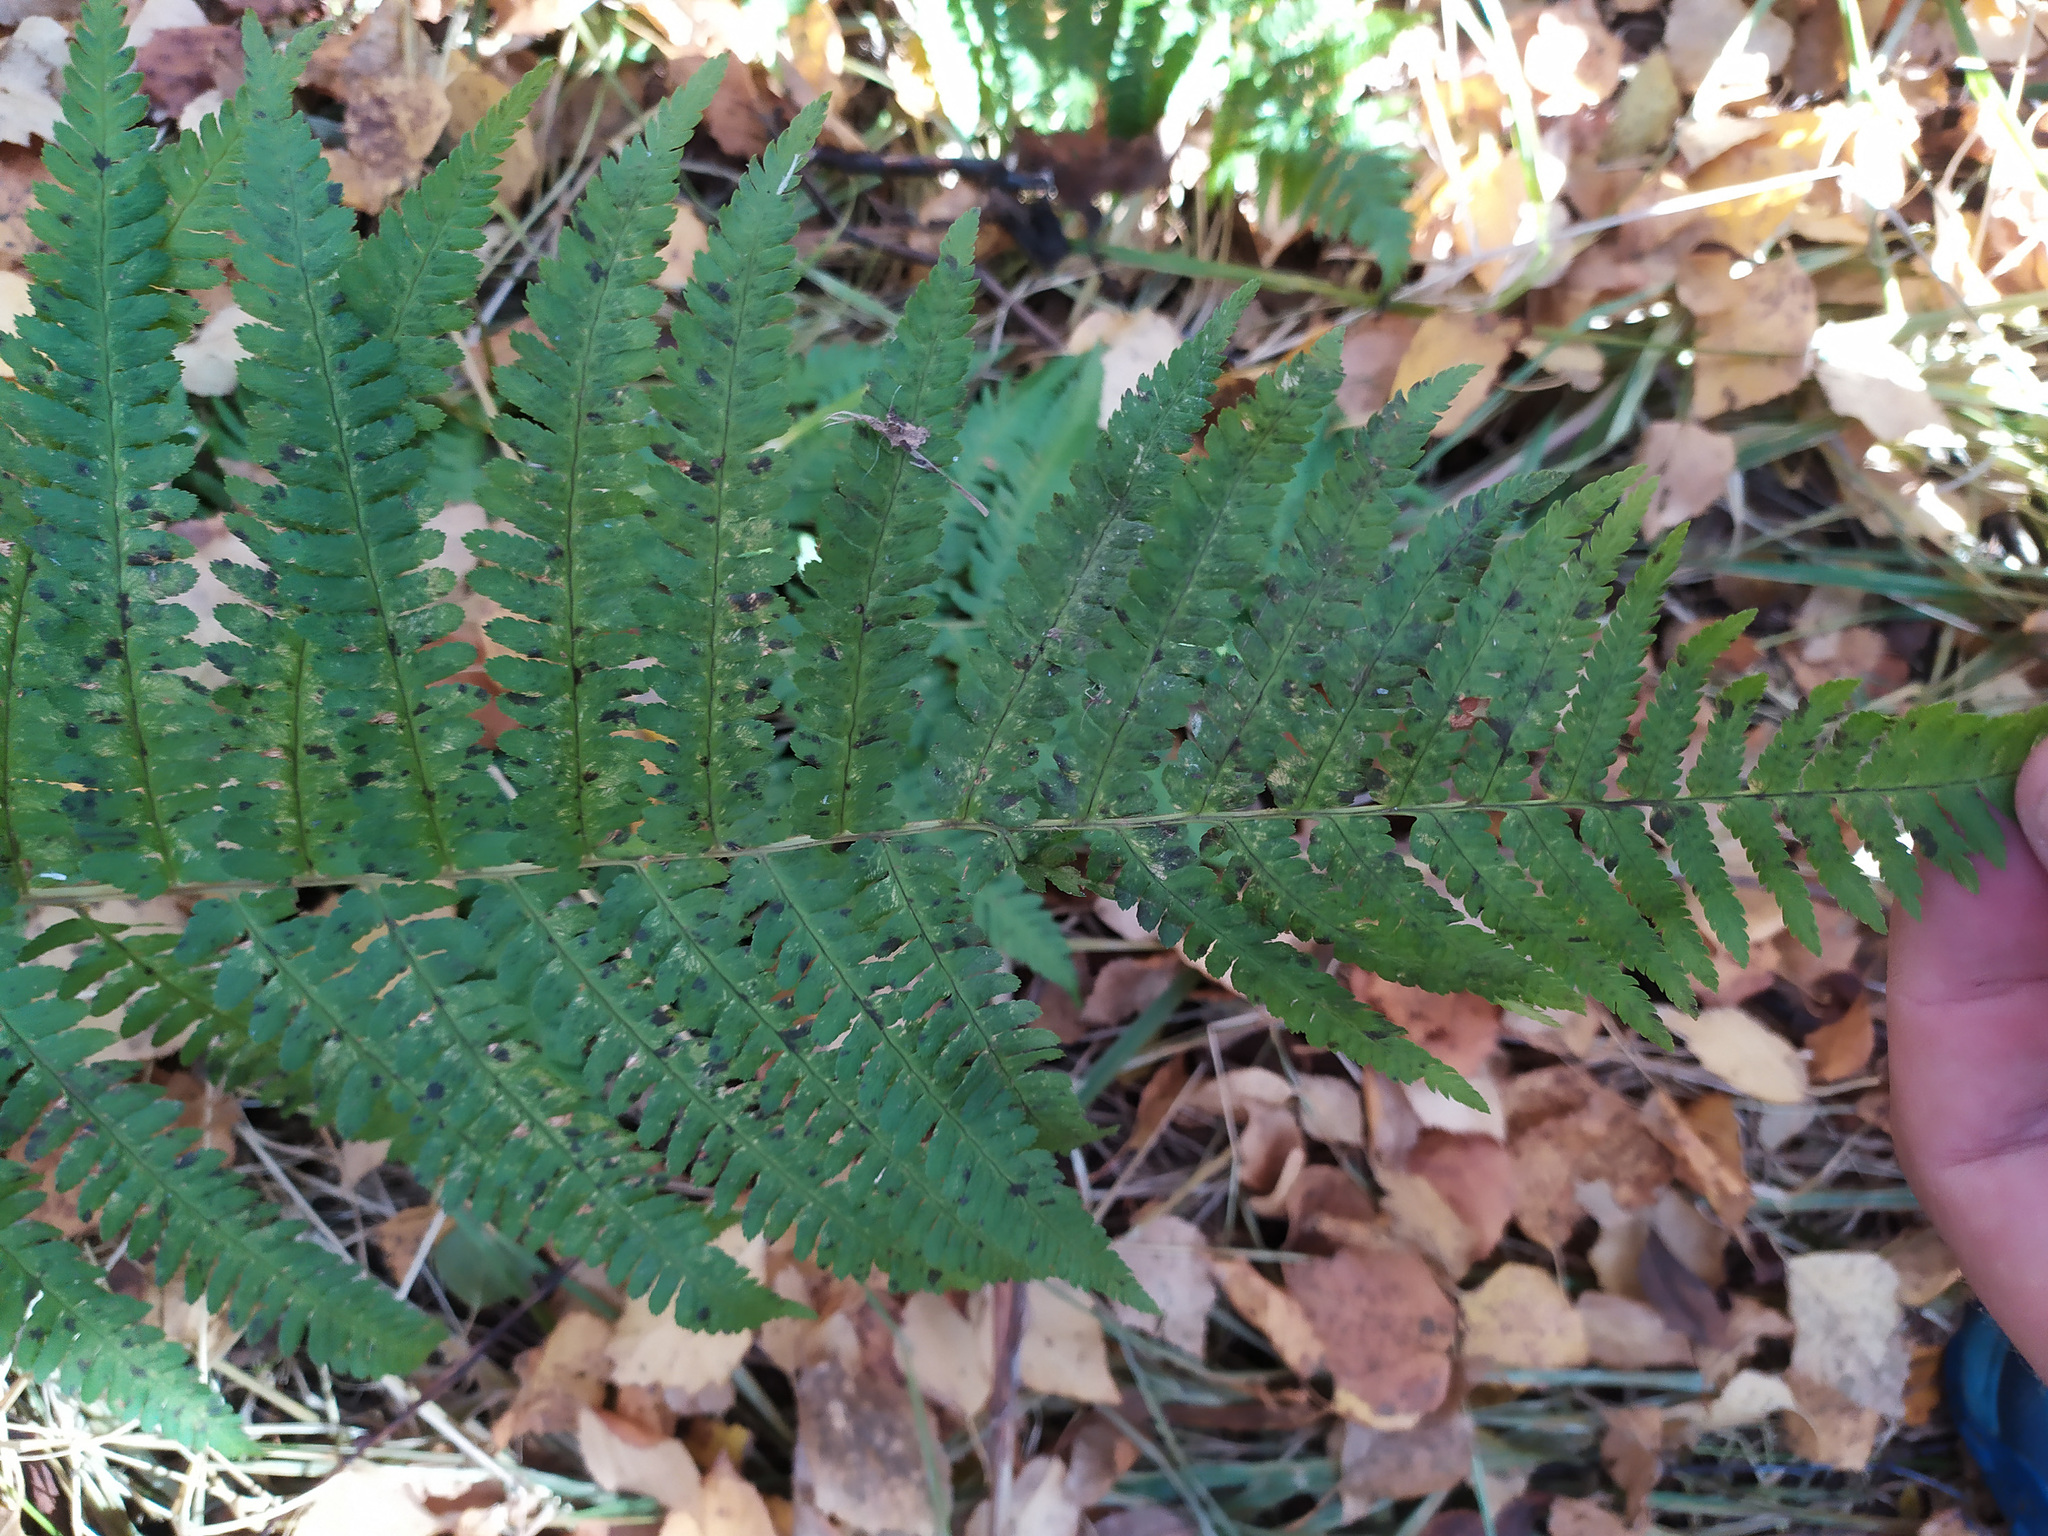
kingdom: Plantae
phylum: Tracheophyta
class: Polypodiopsida
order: Polypodiales
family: Dryopteridaceae
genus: Dryopteris
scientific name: Dryopteris filix-mas
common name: Male fern
